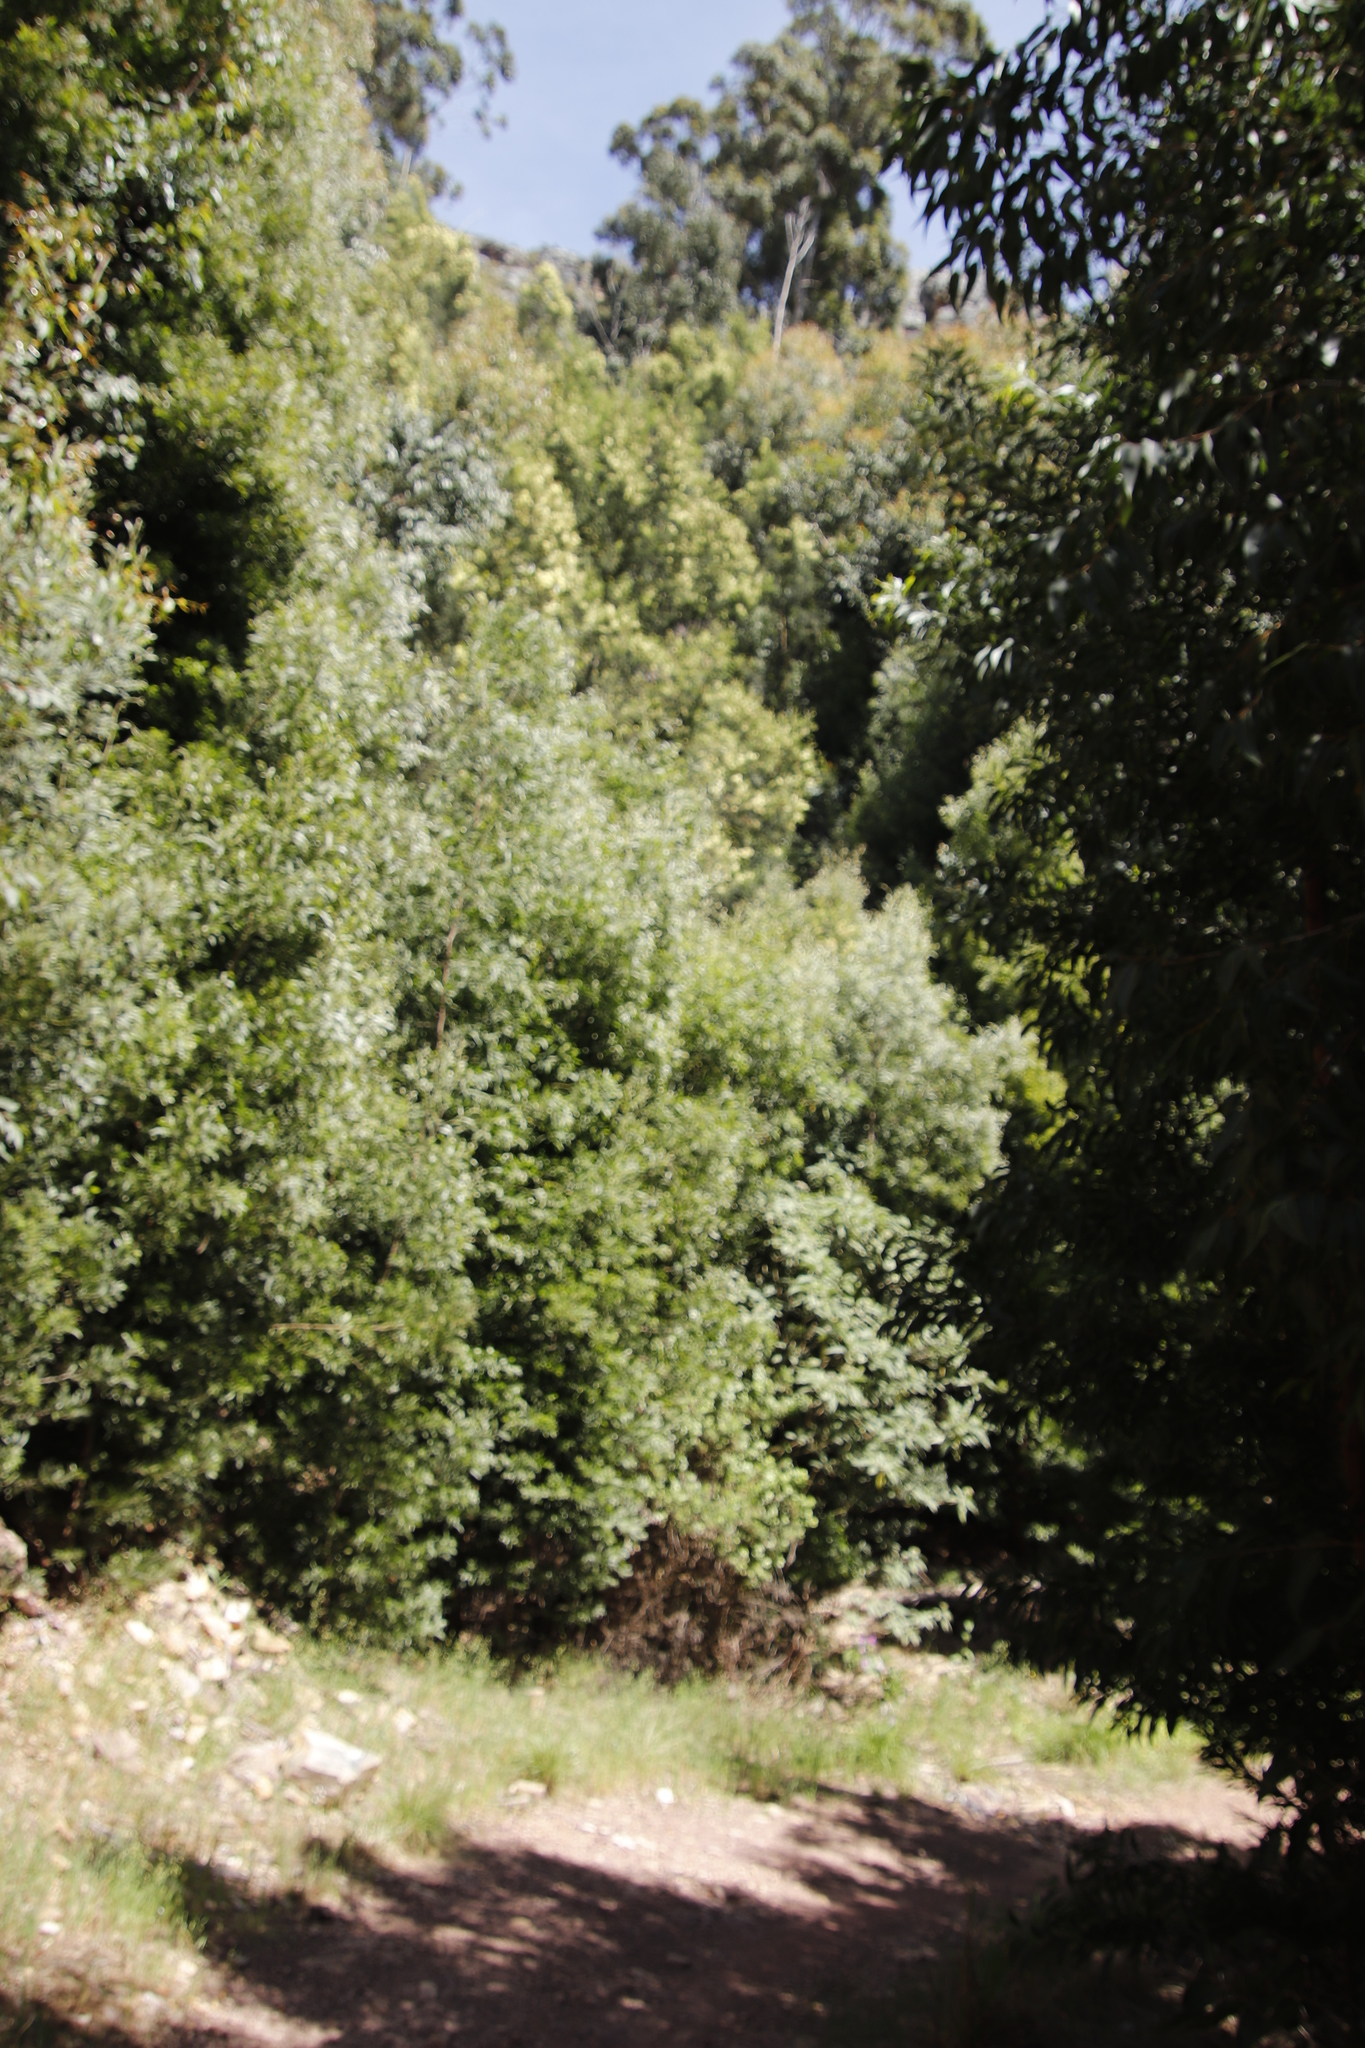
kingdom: Plantae
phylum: Tracheophyta
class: Magnoliopsida
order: Fabales
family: Fabaceae
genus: Acacia
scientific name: Acacia melanoxylon
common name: Blackwood
